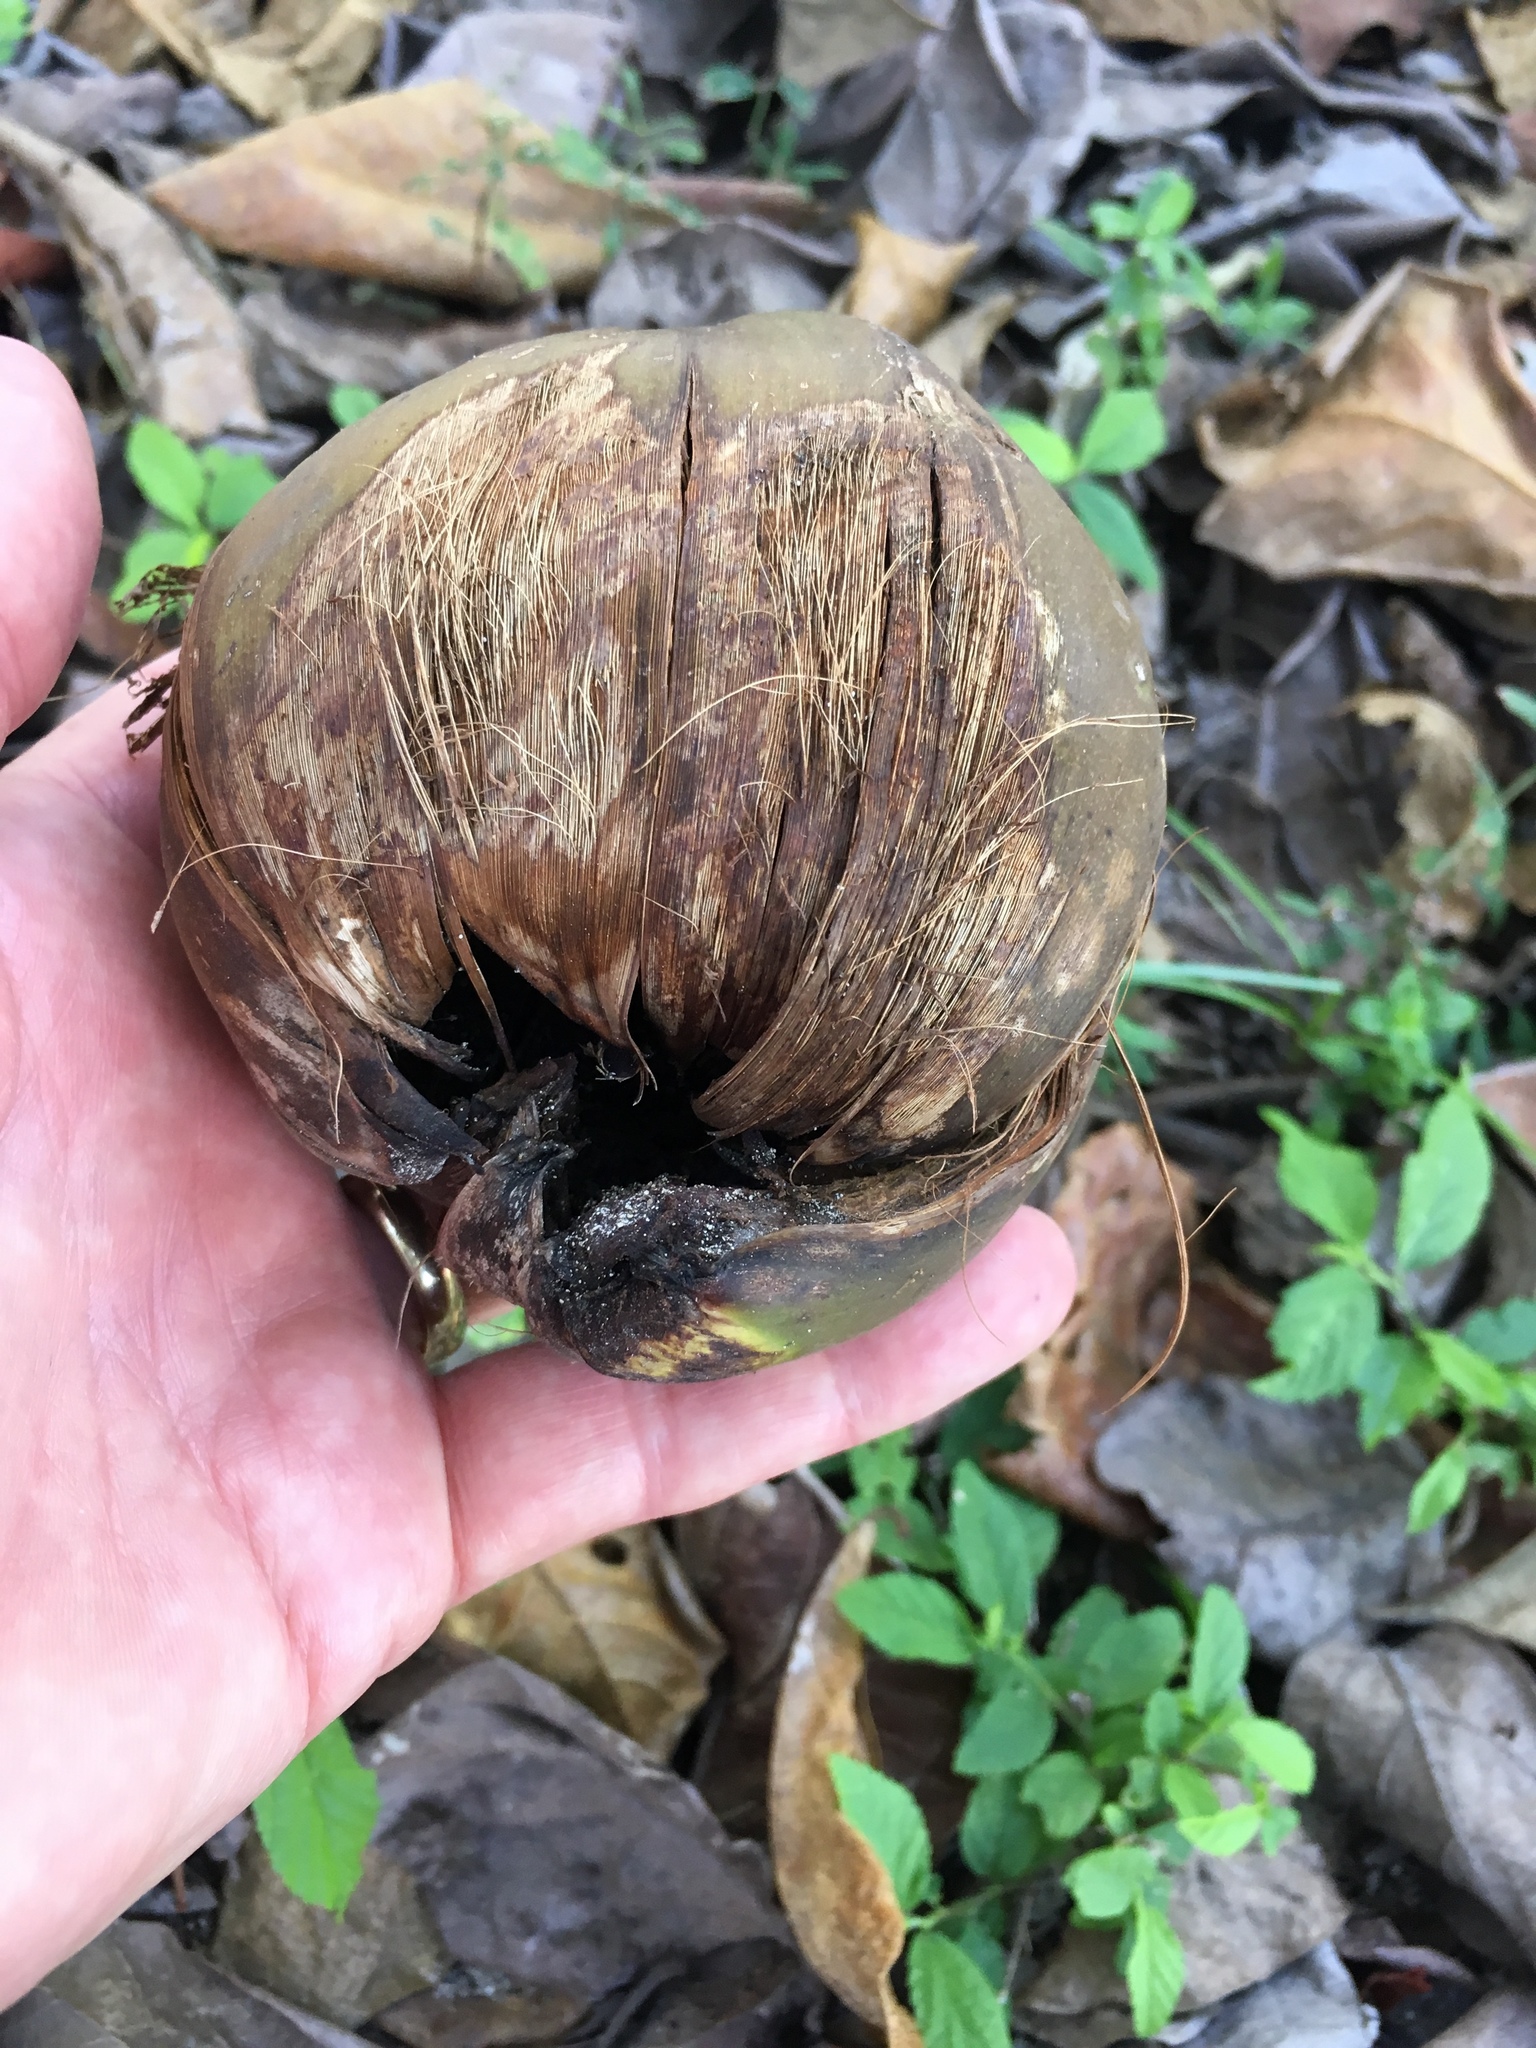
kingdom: Plantae
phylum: Tracheophyta
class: Liliopsida
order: Arecales
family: Arecaceae
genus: Cocos
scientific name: Cocos nucifera
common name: Coconut palm
